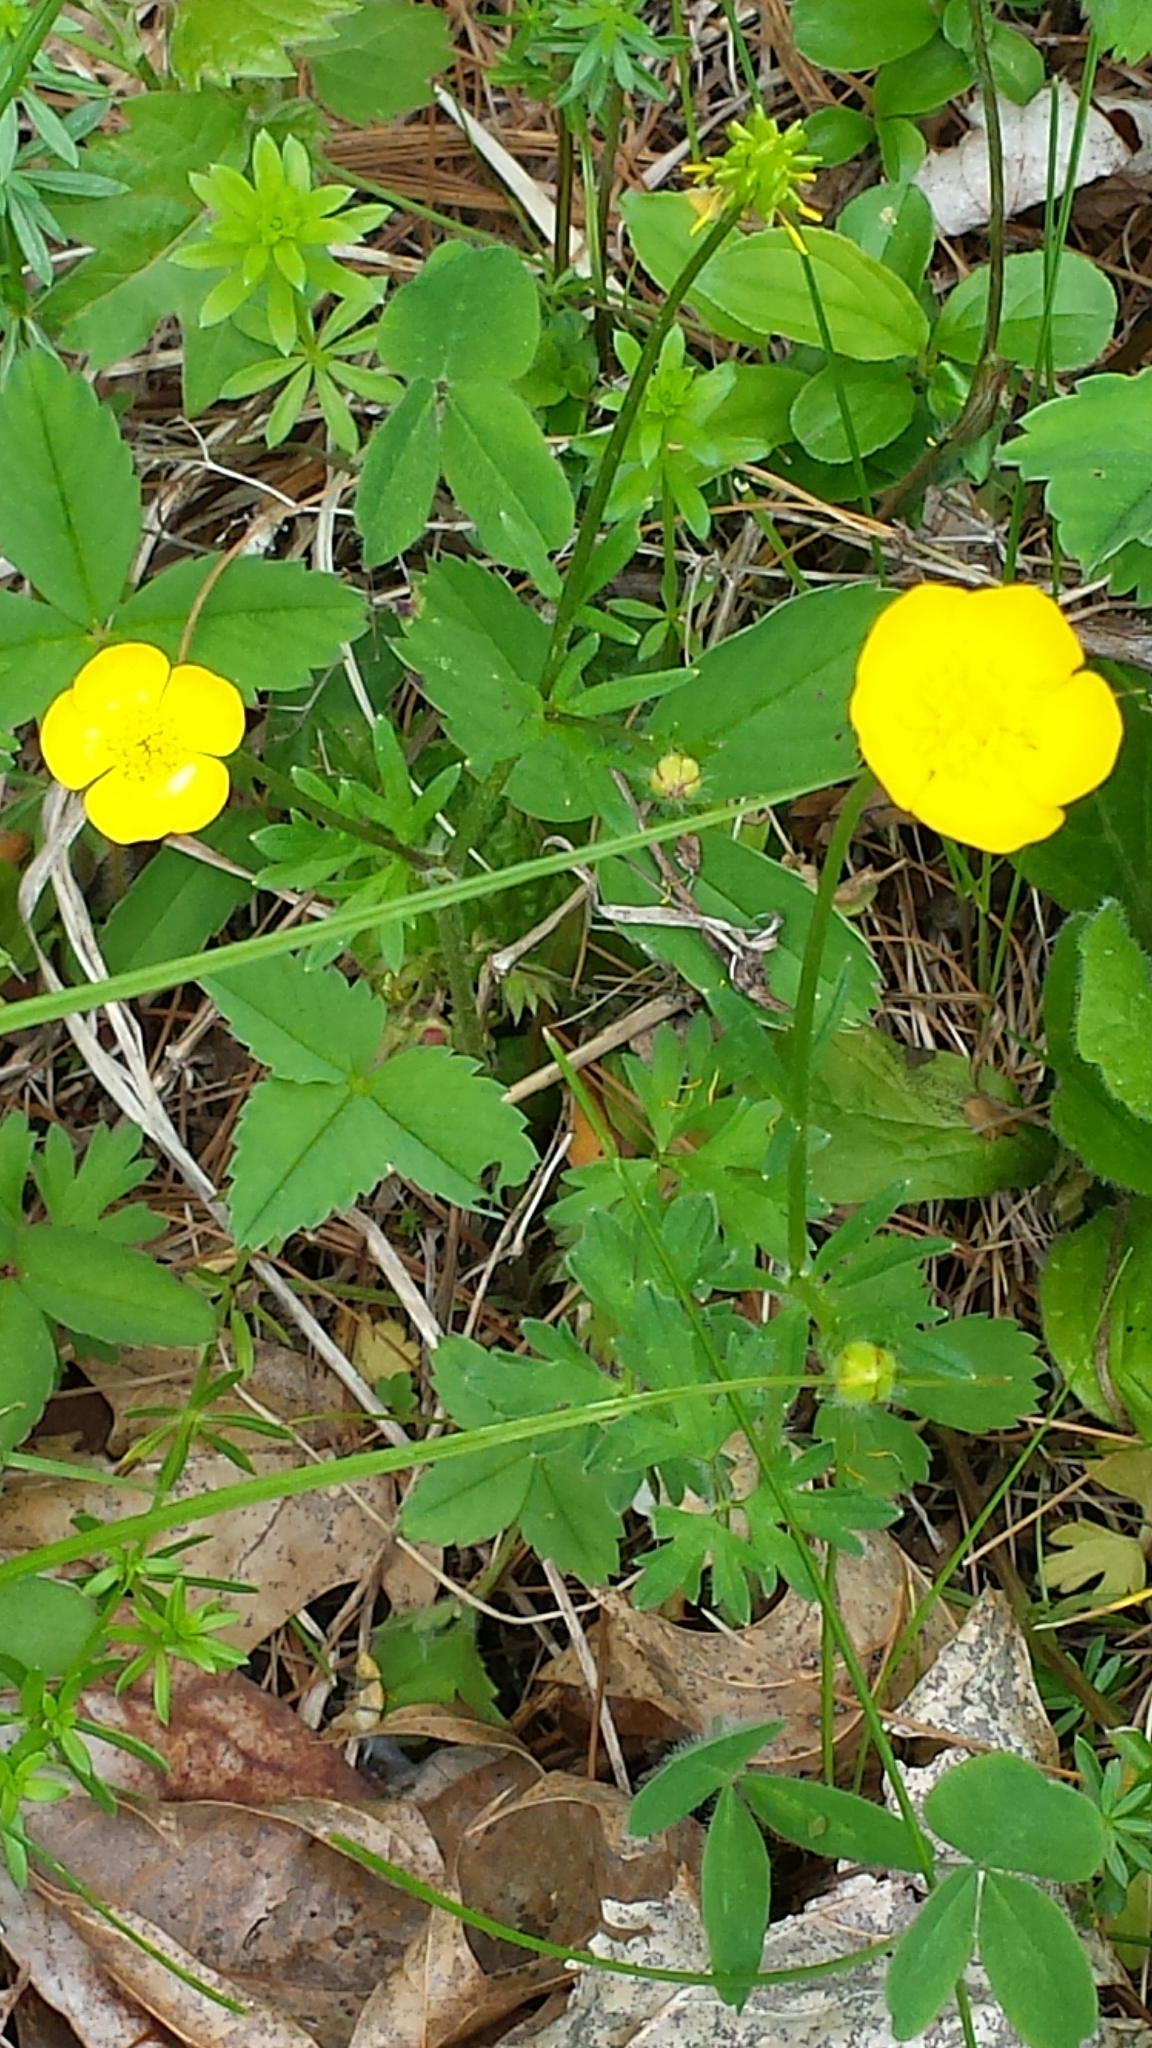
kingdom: Plantae
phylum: Tracheophyta
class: Magnoliopsida
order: Ranunculales
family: Ranunculaceae
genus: Ranunculus
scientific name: Ranunculus acris
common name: Meadow buttercup
